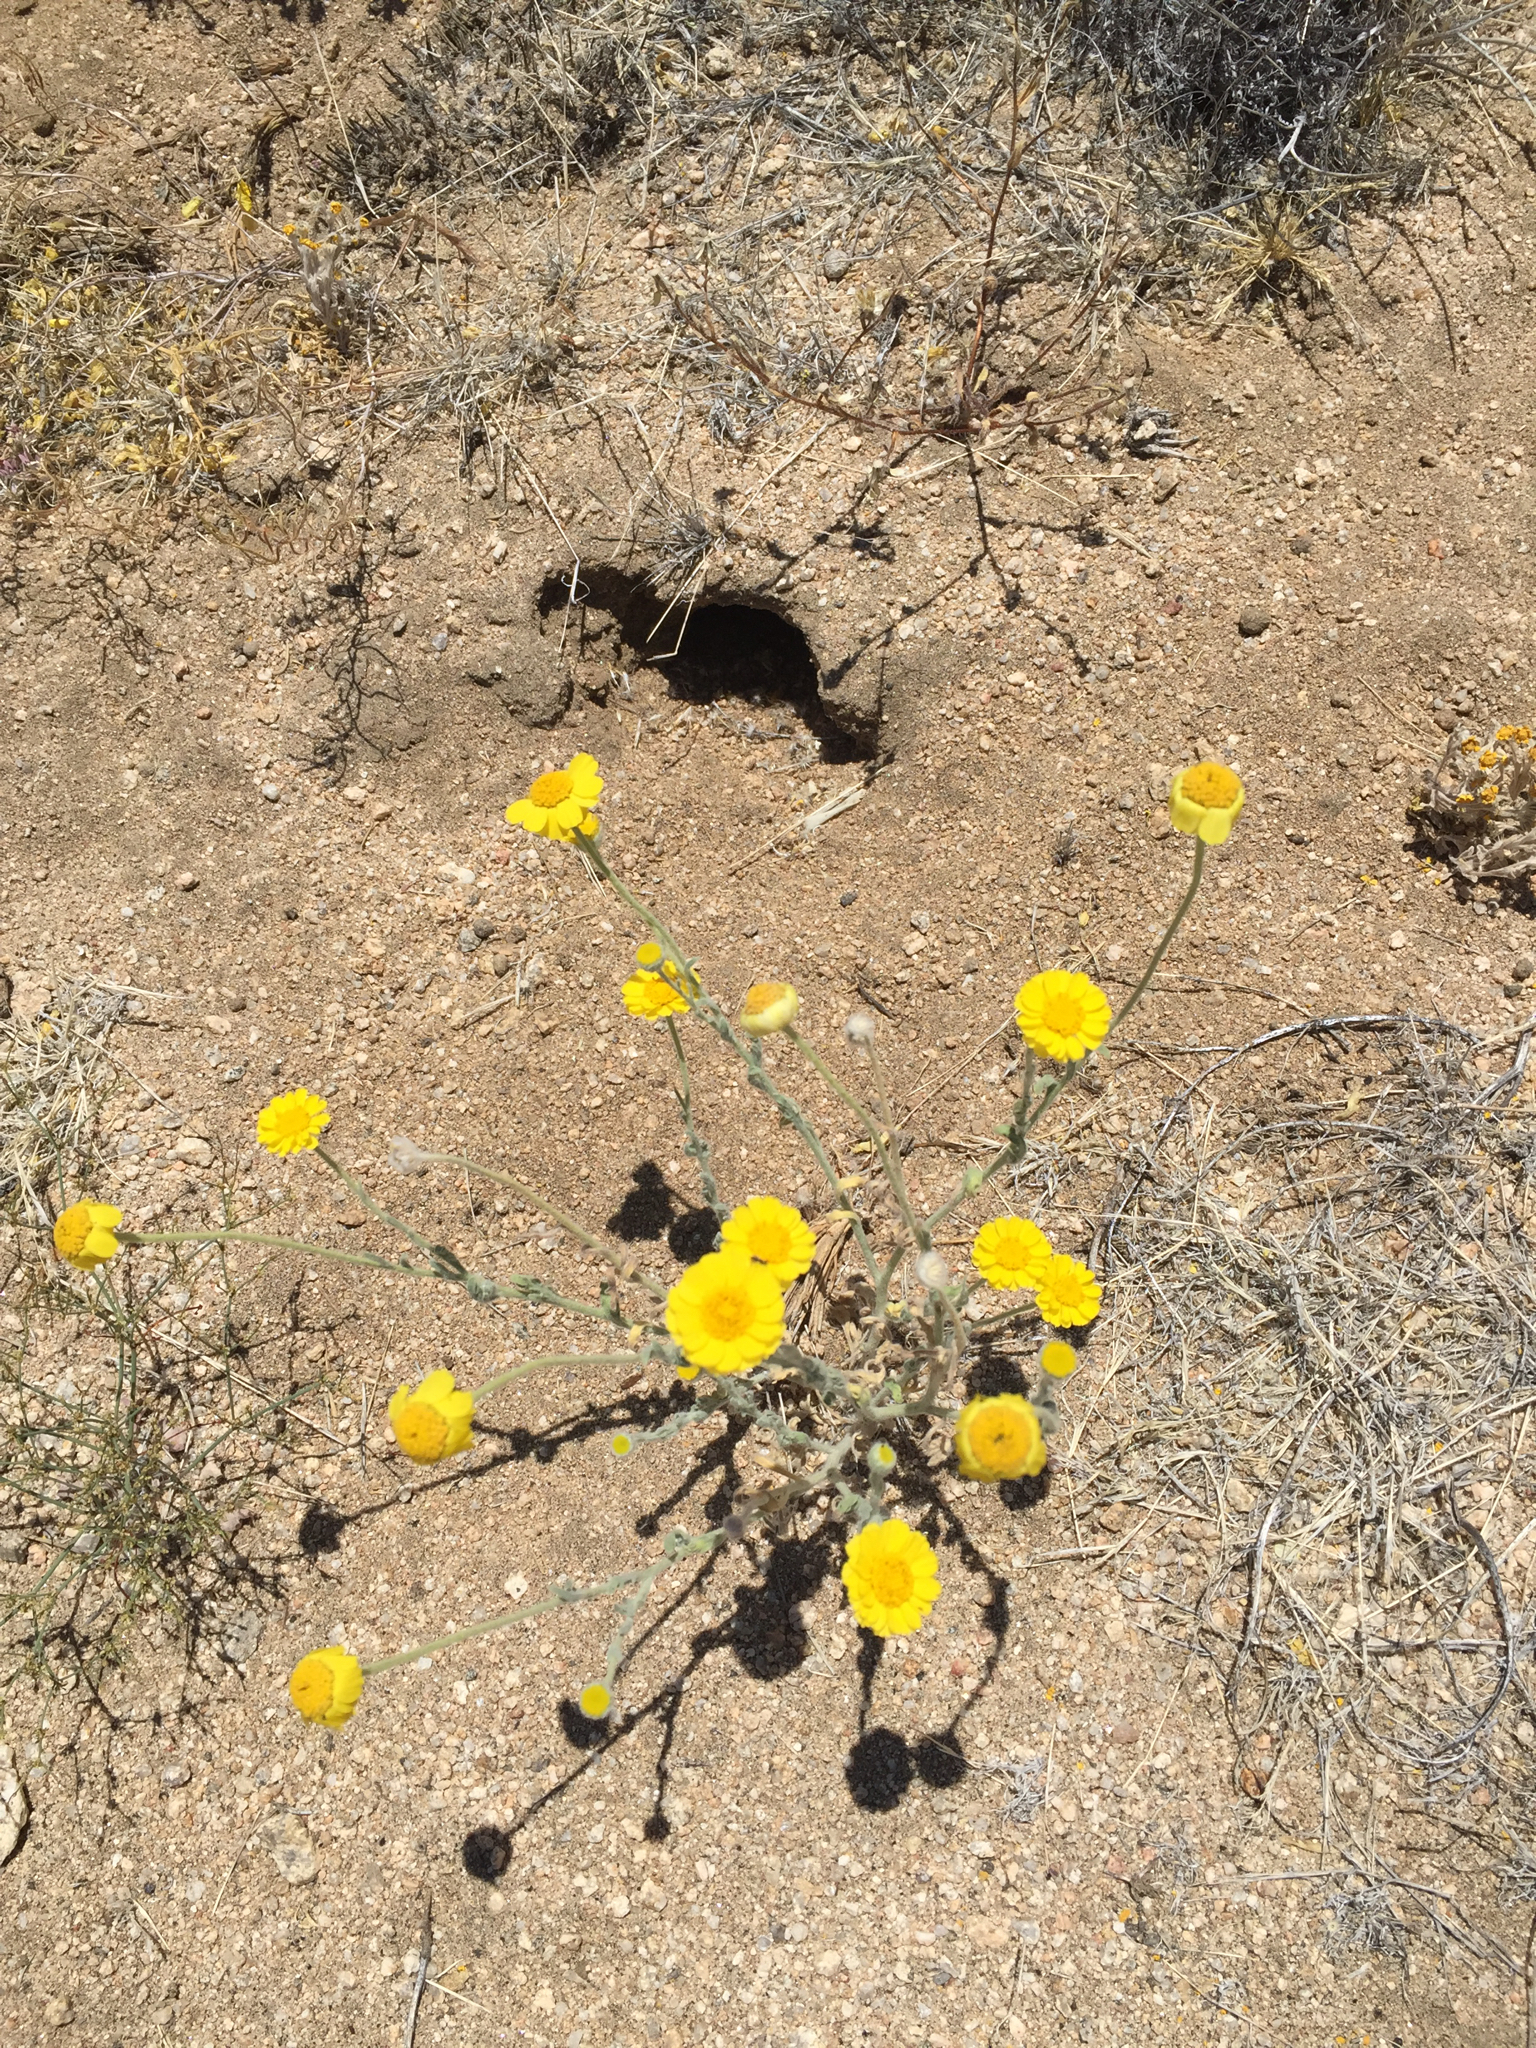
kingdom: Plantae
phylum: Tracheophyta
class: Magnoliopsida
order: Asterales
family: Asteraceae
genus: Baileya
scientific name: Baileya pleniradiata
